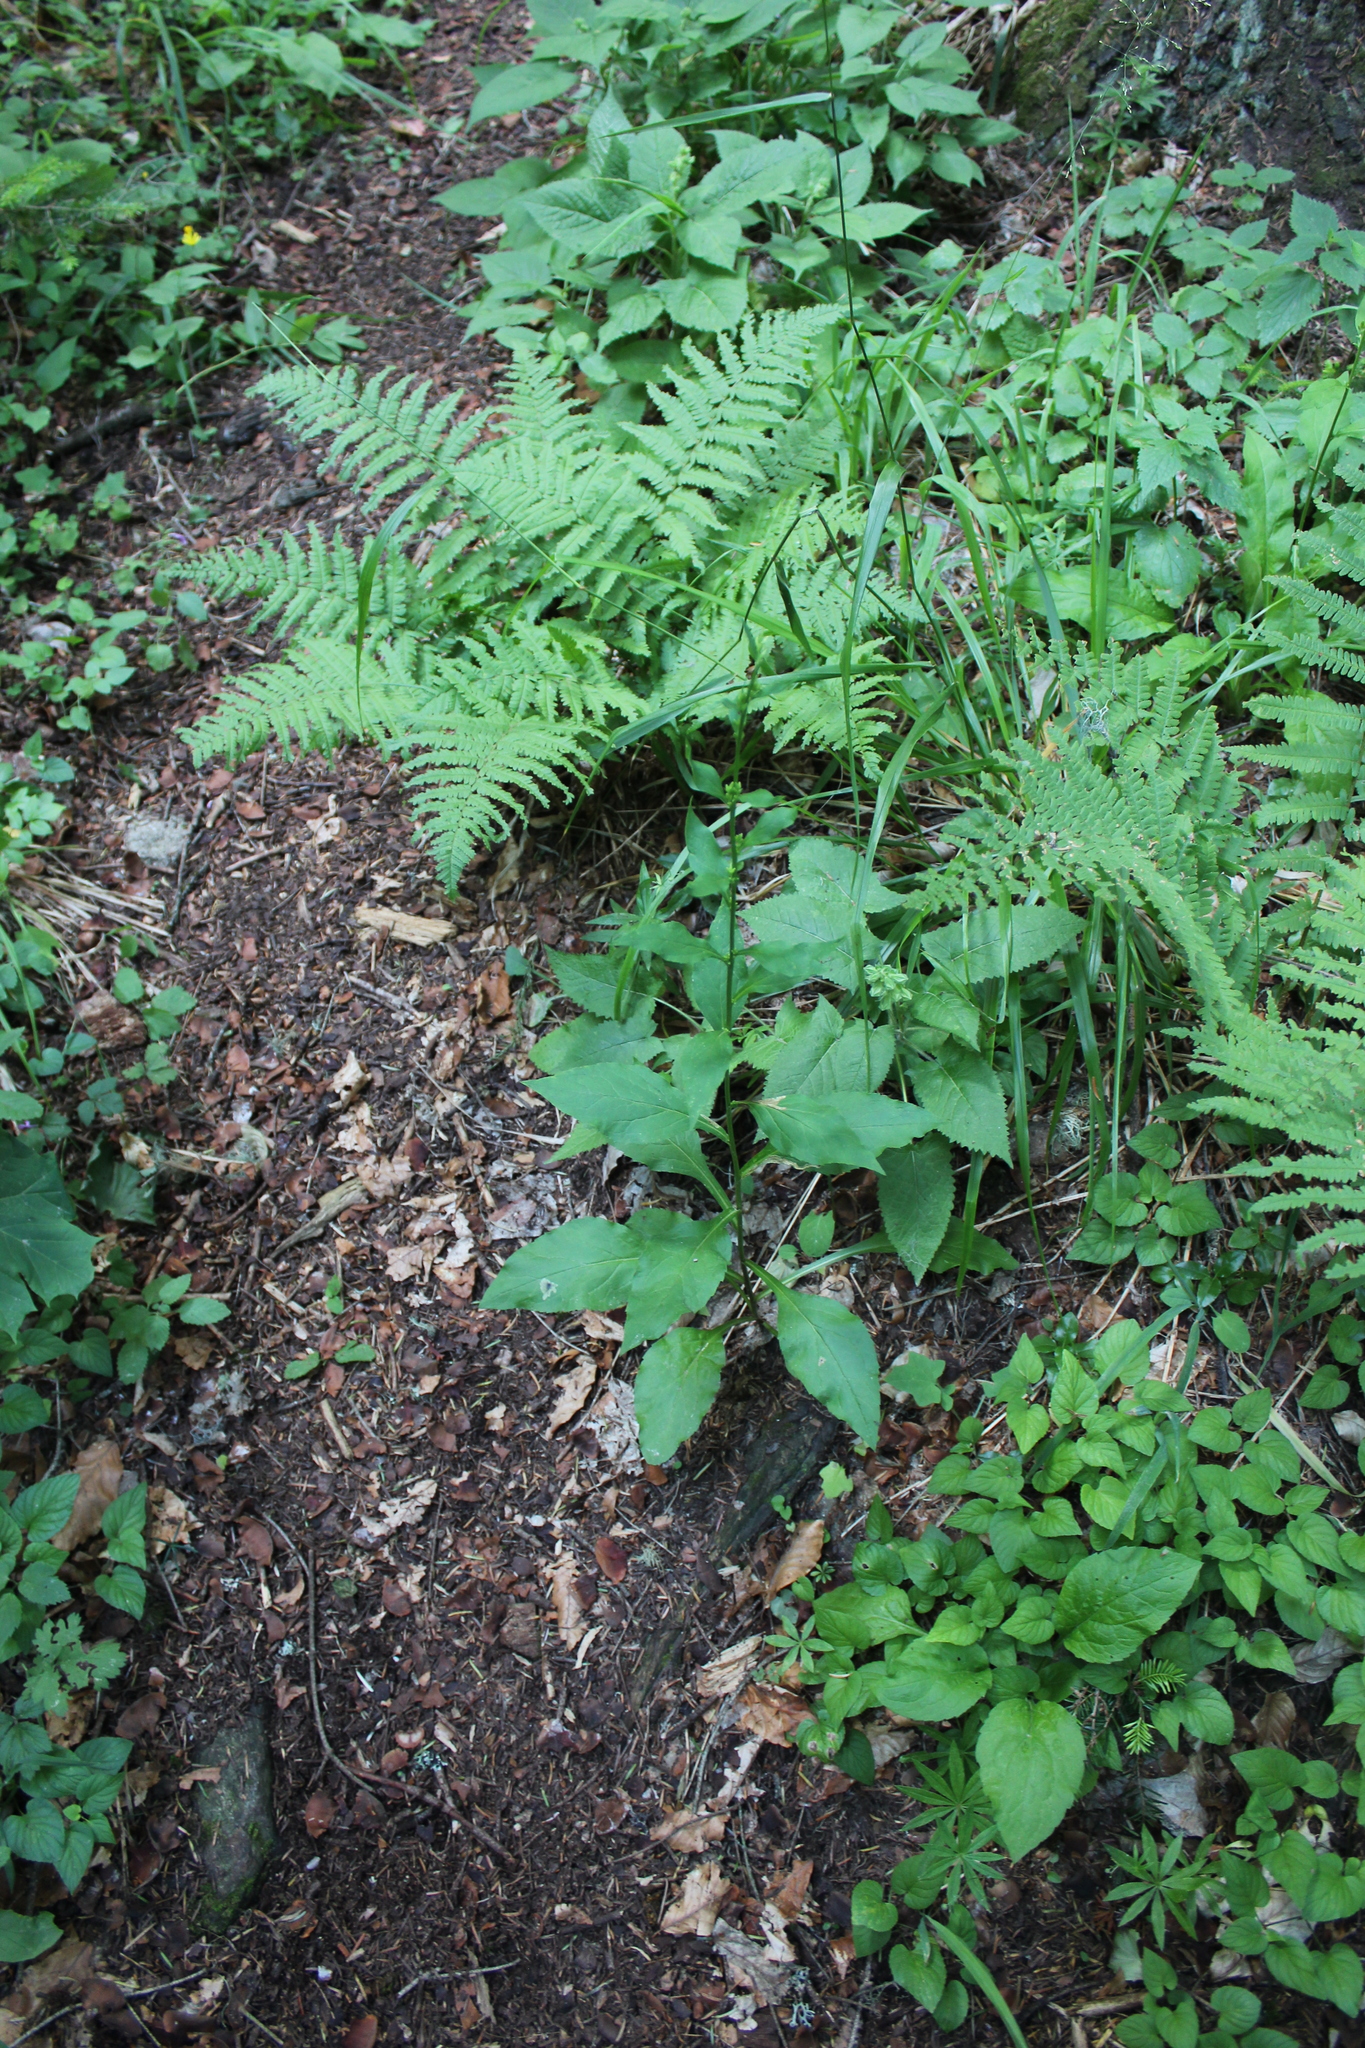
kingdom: Plantae
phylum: Tracheophyta
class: Magnoliopsida
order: Asterales
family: Asteraceae
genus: Solidago
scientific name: Solidago virgaurea
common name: Goldenrod
